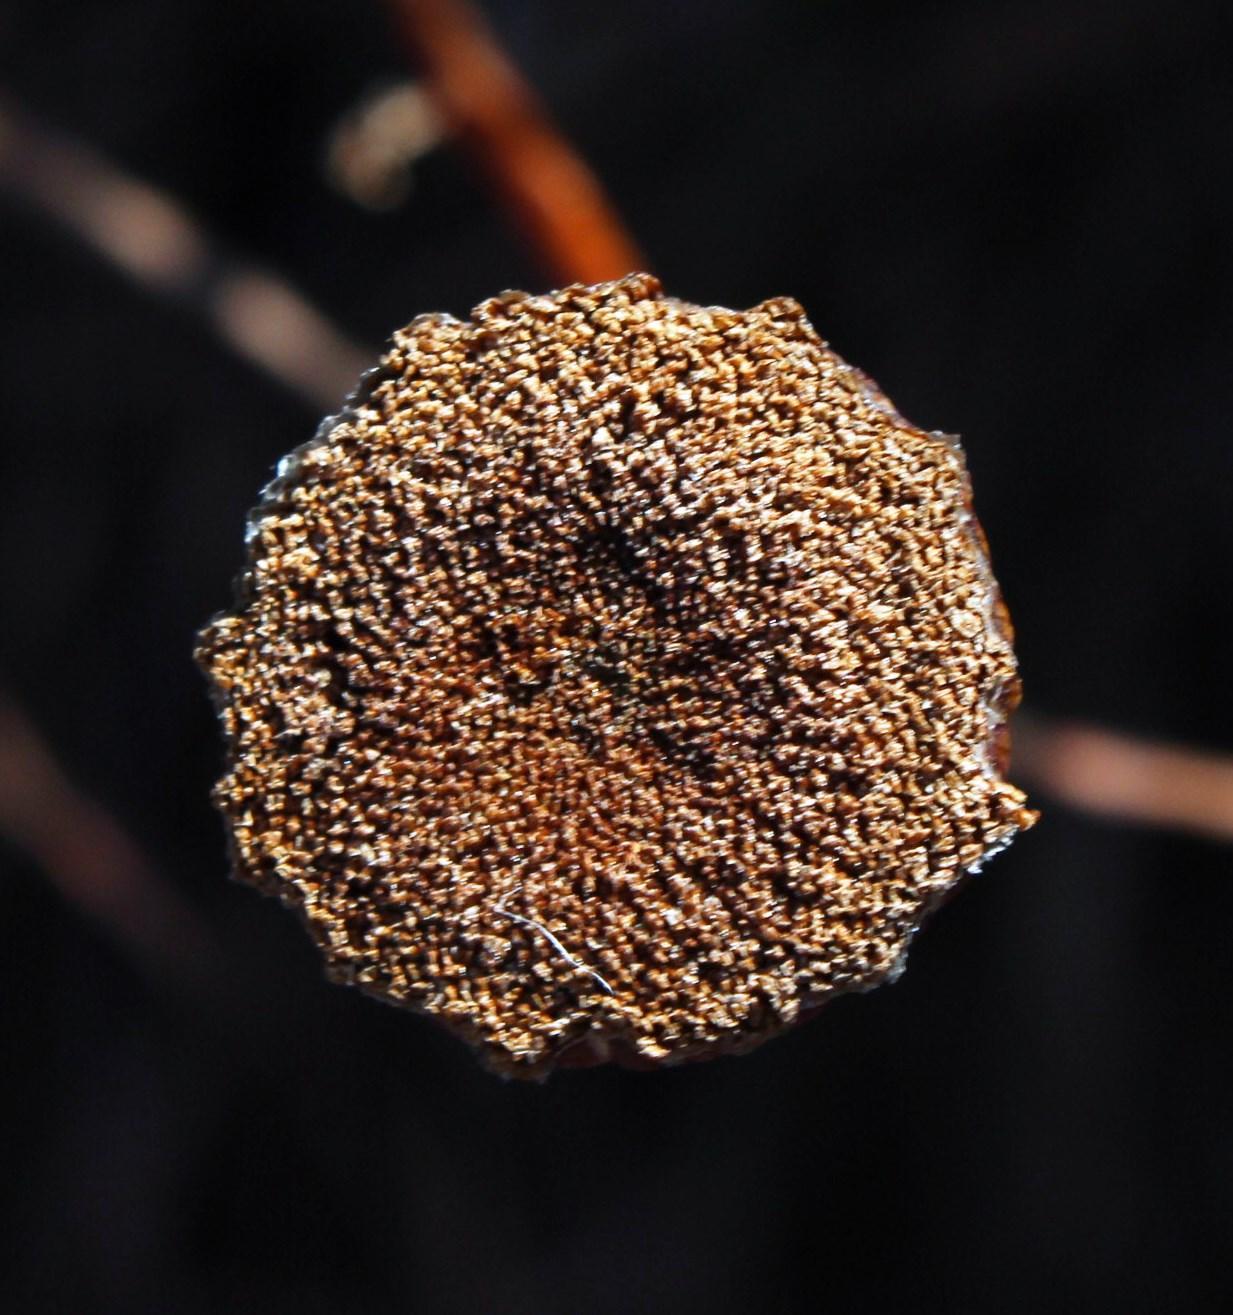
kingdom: Plantae
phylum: Tracheophyta
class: Magnoliopsida
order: Asterales
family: Asteraceae
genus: Cotula
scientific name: Cotula socialis
